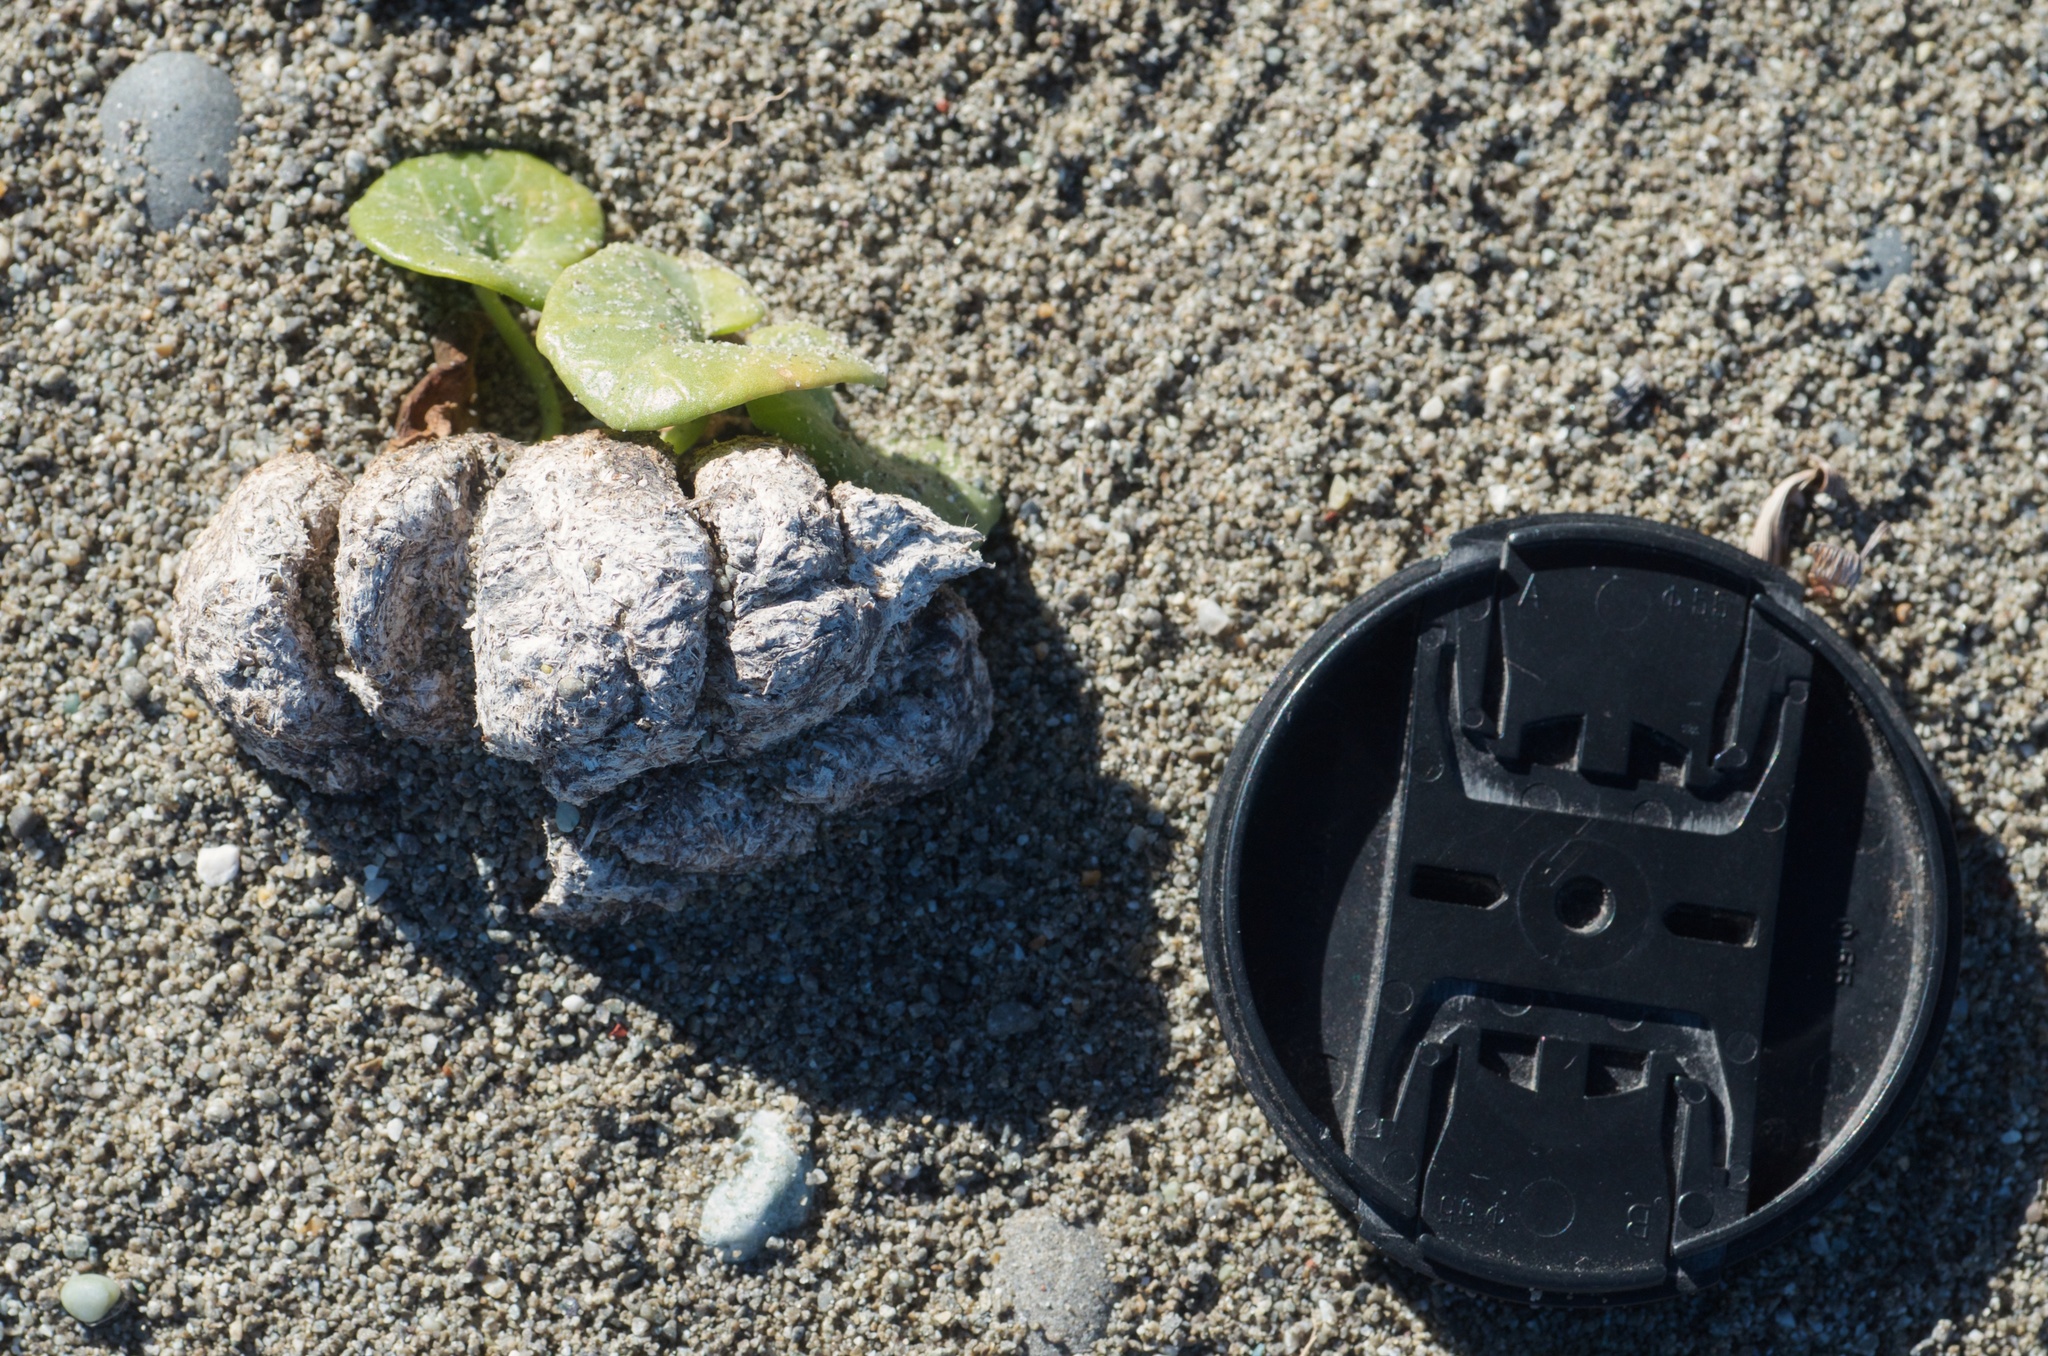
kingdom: Animalia
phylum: Chordata
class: Mammalia
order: Artiodactyla
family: Bovidae
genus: Ovis
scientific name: Ovis aries
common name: Domestic sheep
